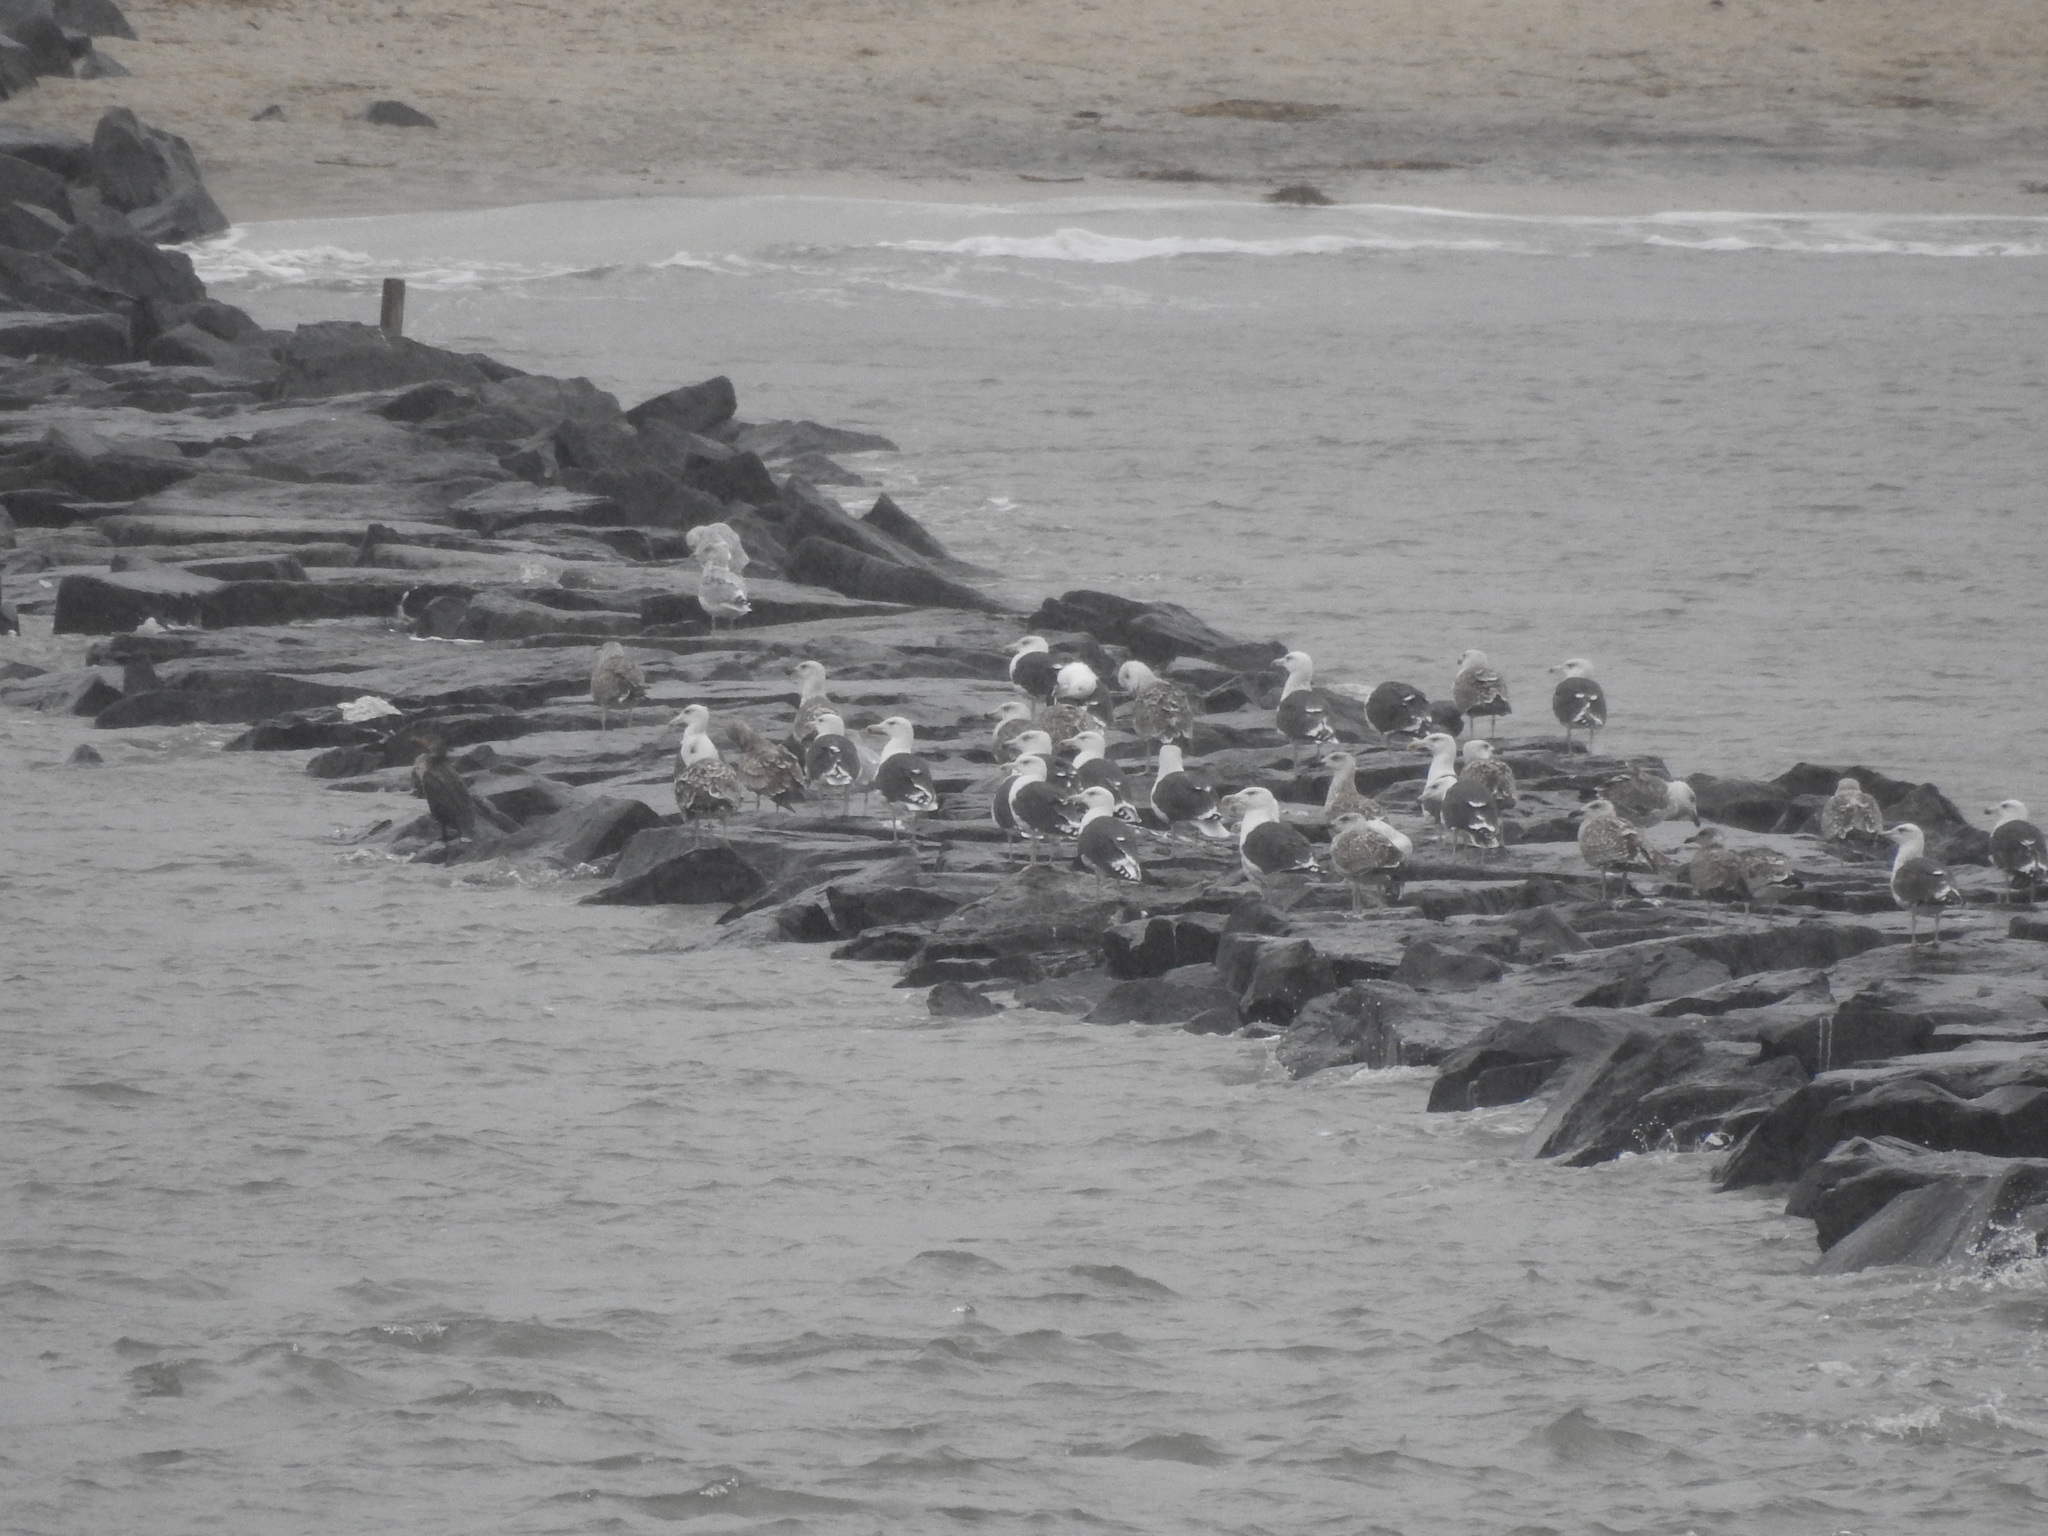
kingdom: Animalia
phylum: Chordata
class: Aves
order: Charadriiformes
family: Laridae
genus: Larus
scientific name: Larus marinus
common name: Great black-backed gull
